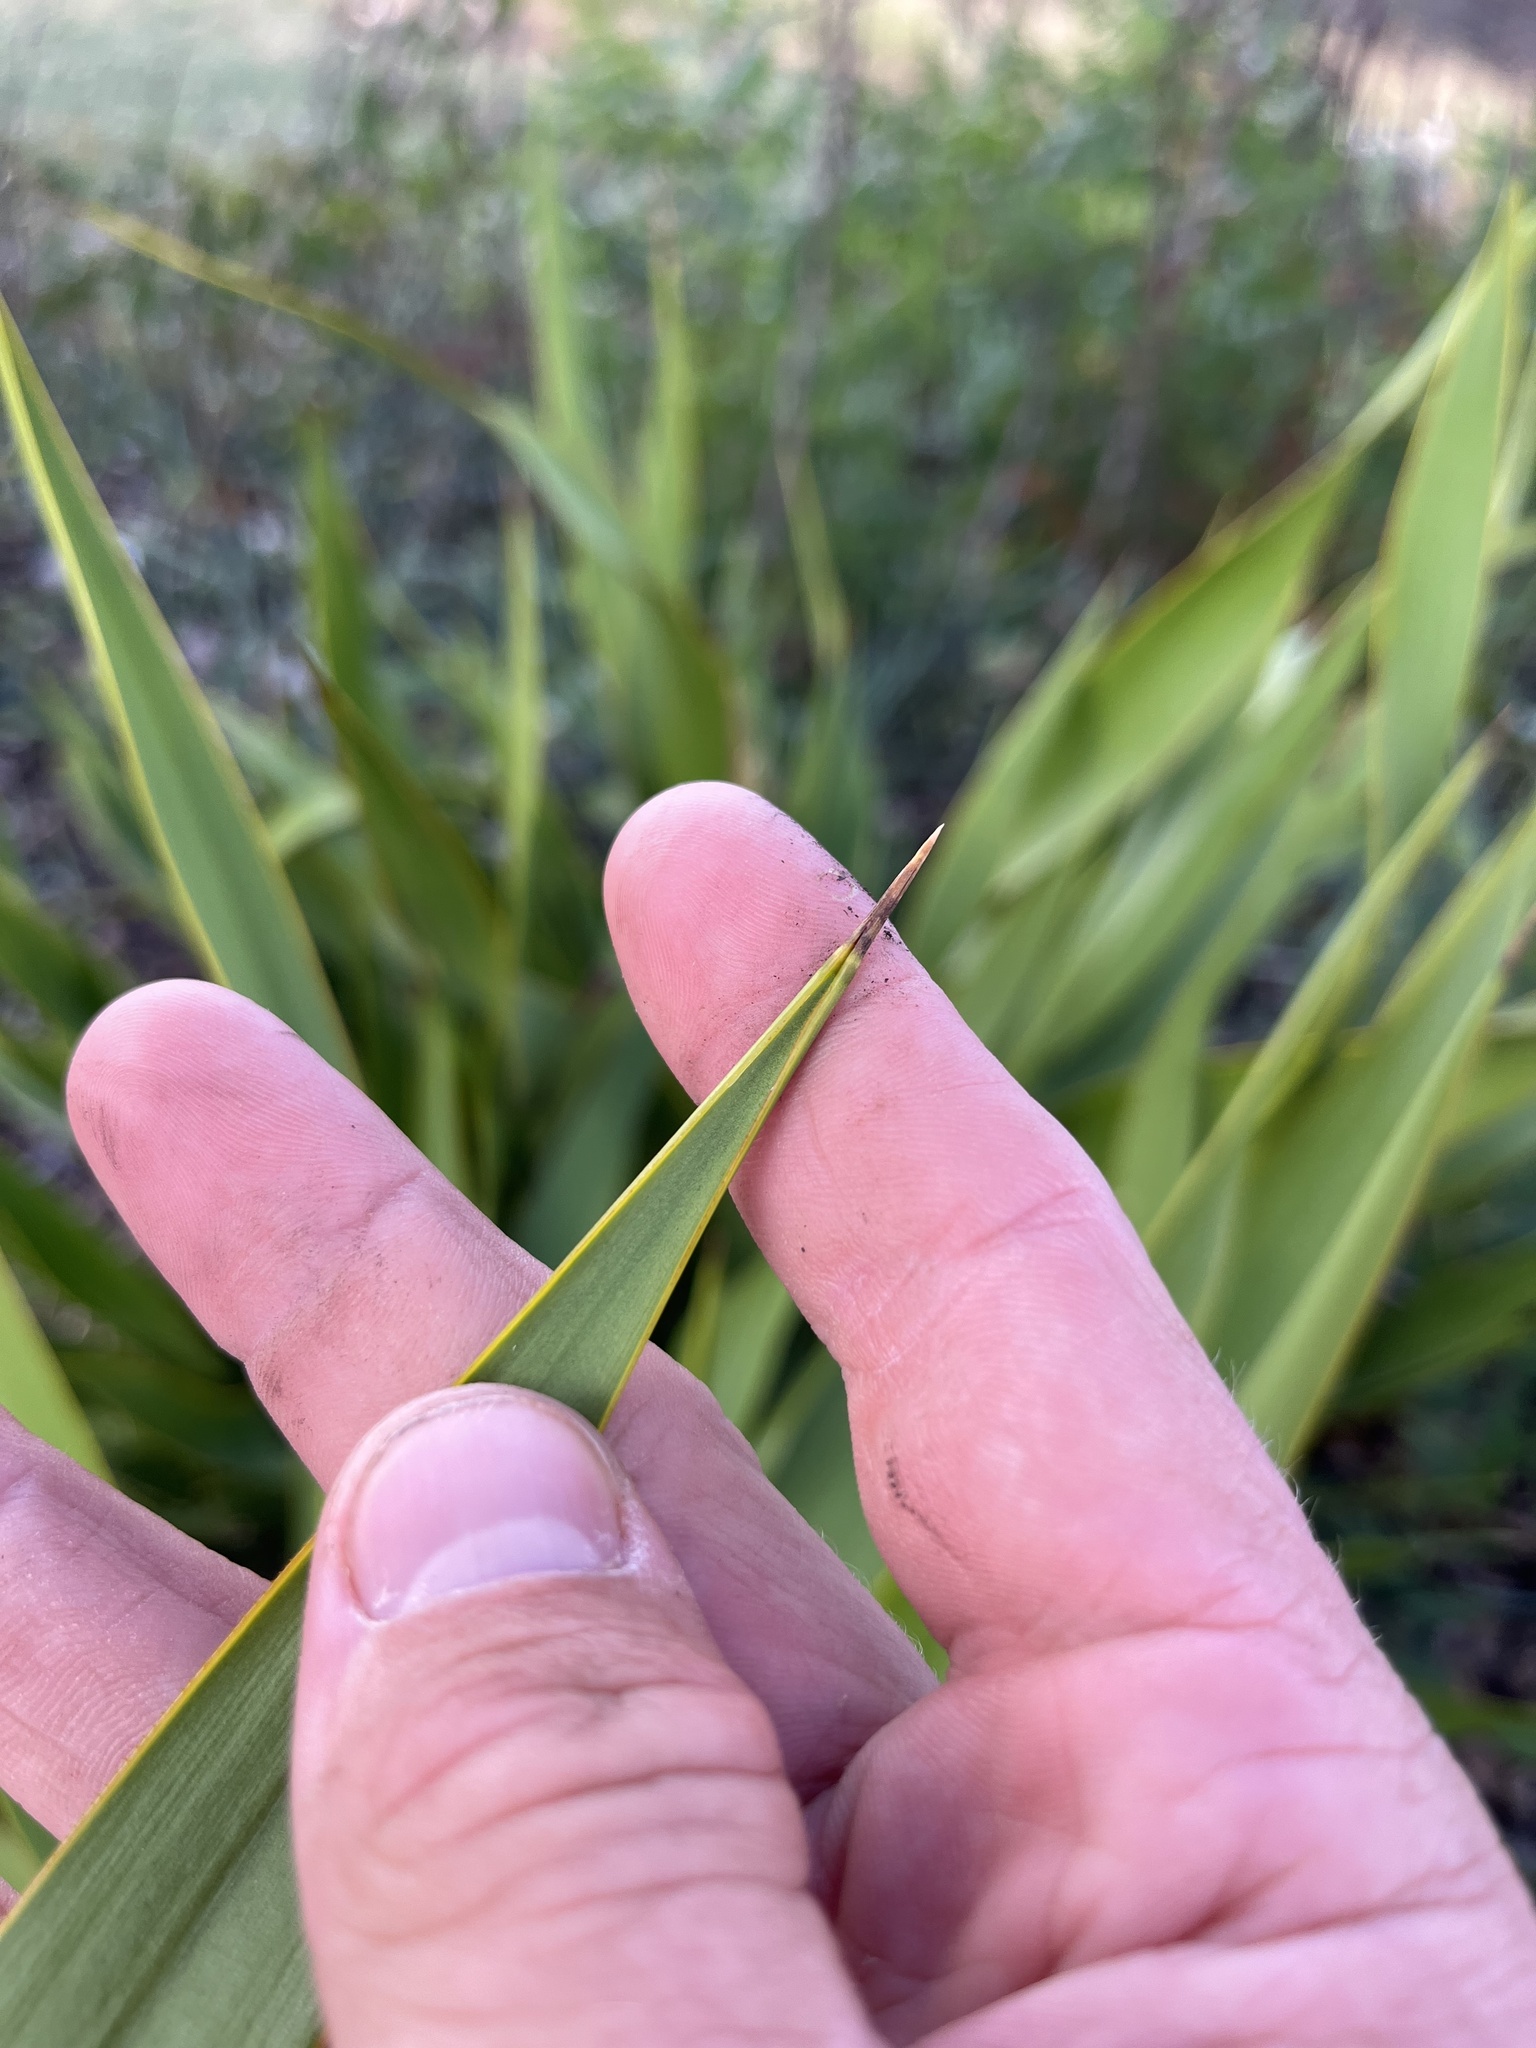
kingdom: Plantae
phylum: Tracheophyta
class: Liliopsida
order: Asparagales
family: Asparagaceae
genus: Yucca
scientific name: Yucca rupicola
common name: Twisted-leaf spanish-dagger
